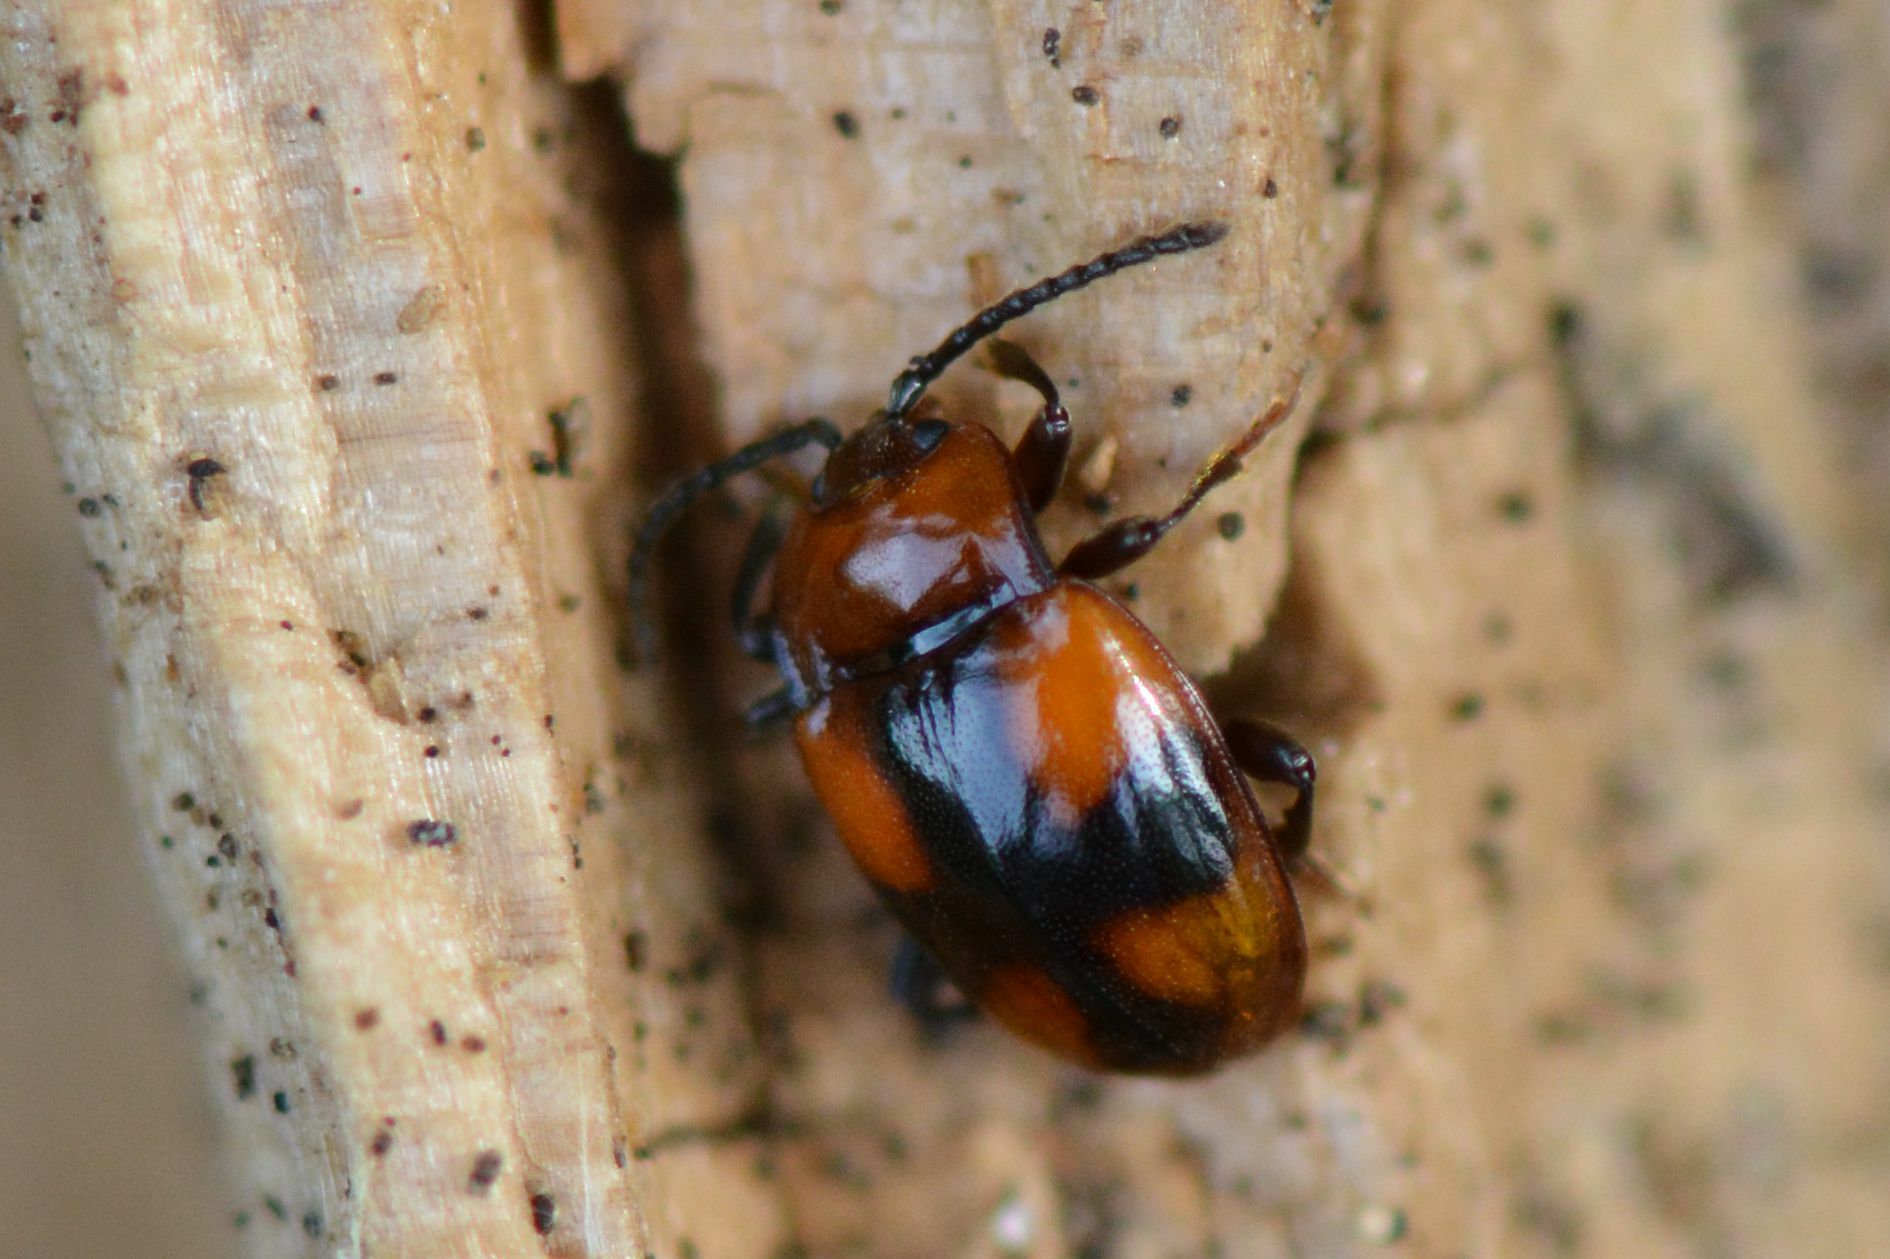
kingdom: Animalia
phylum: Arthropoda
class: Insecta
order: Coleoptera
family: Endomychidae
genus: Mycetina
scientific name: Mycetina cruciata
